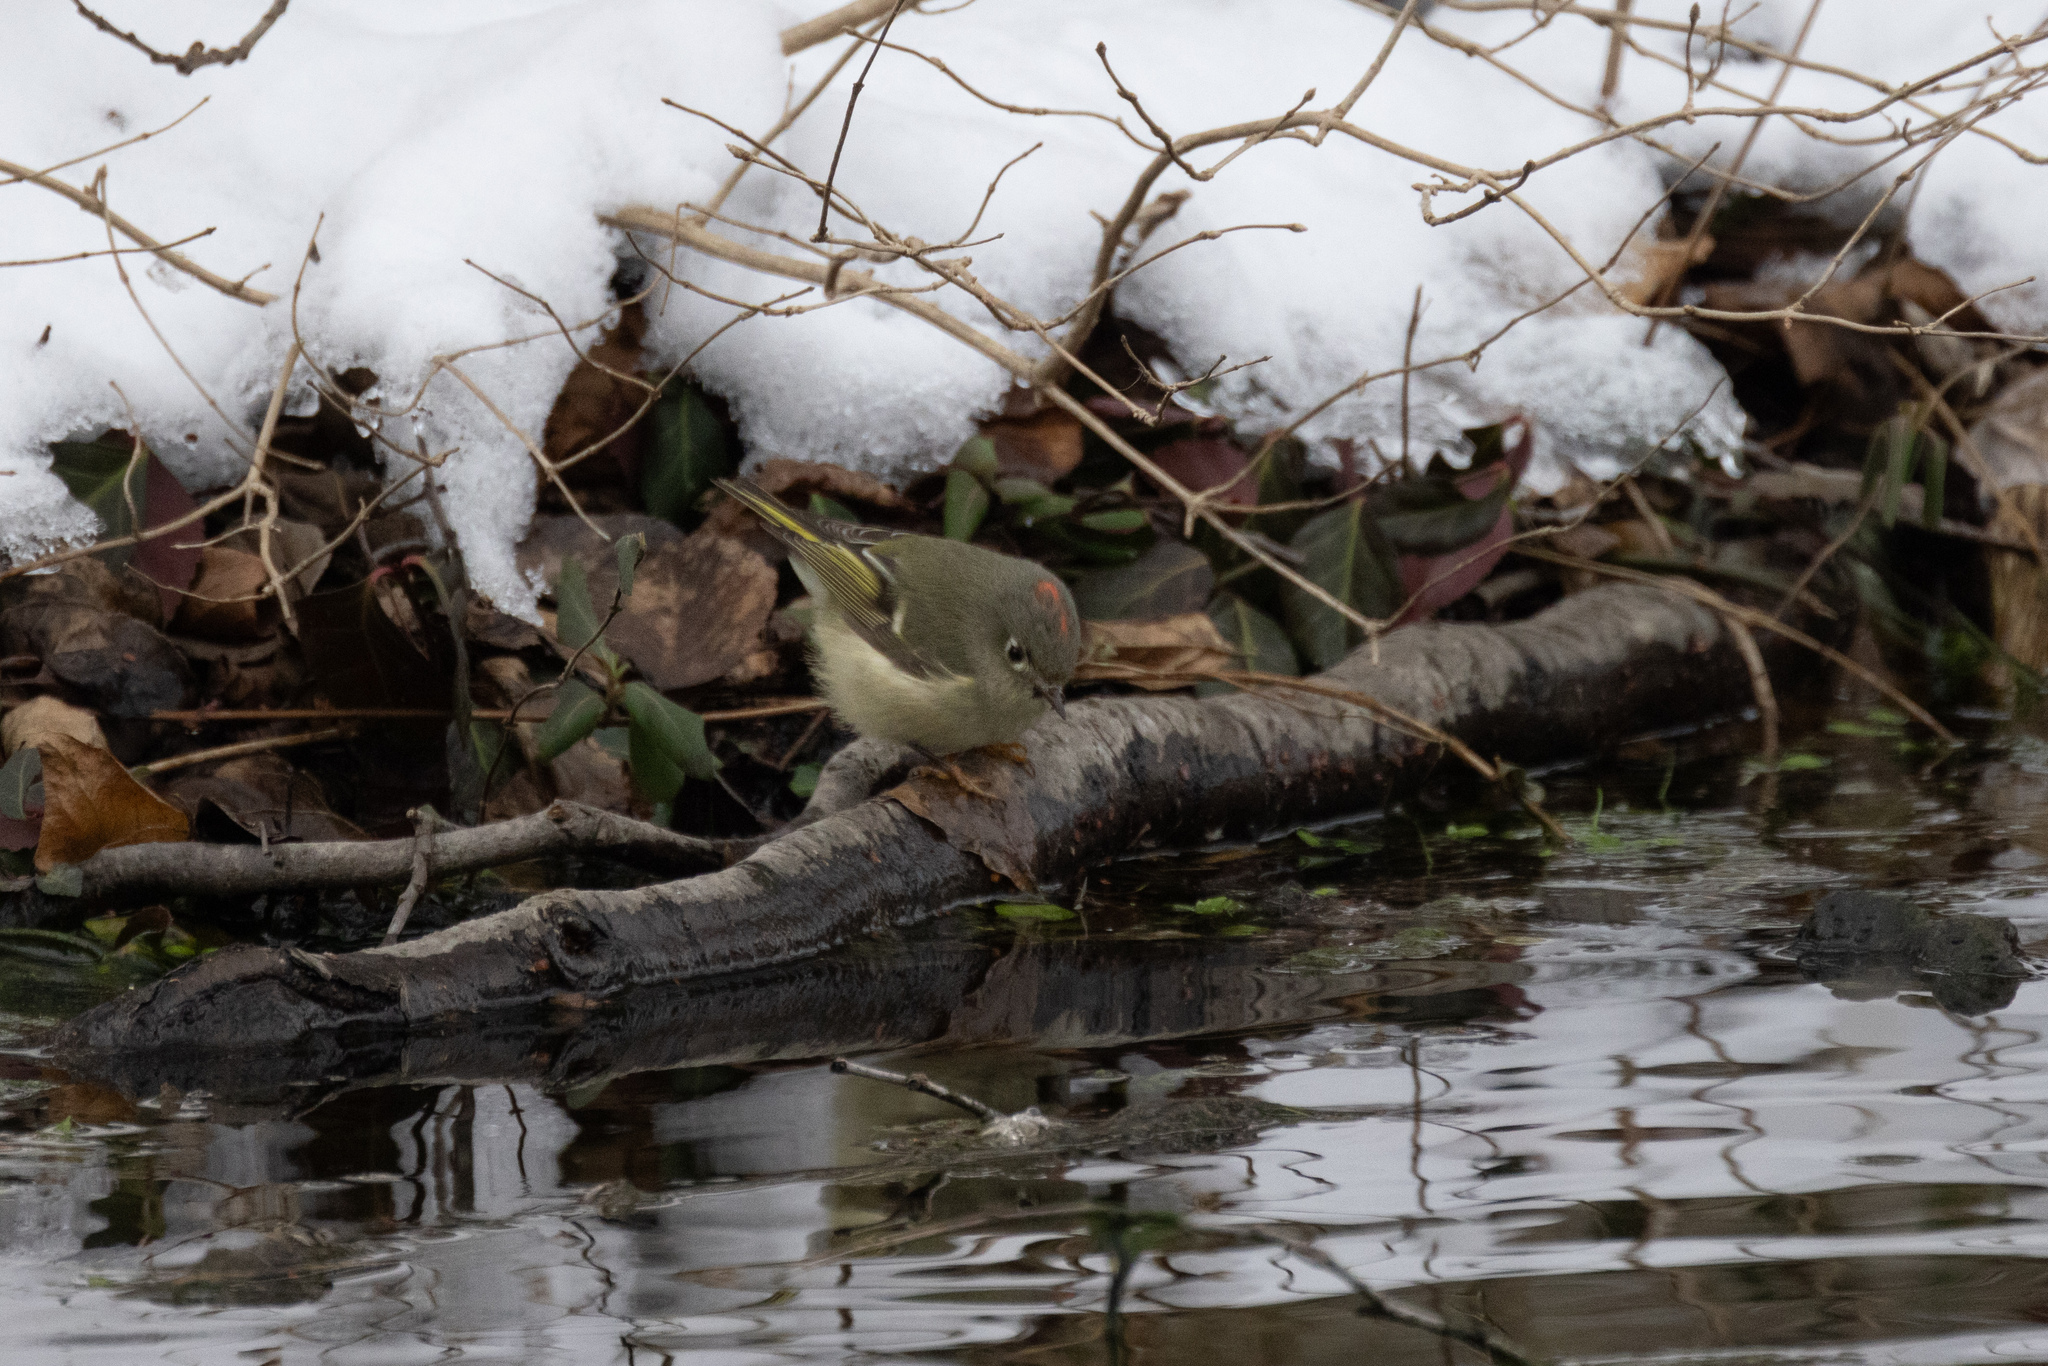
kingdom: Animalia
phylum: Chordata
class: Aves
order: Passeriformes
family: Regulidae
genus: Regulus
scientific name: Regulus calendula
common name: Ruby-crowned kinglet
